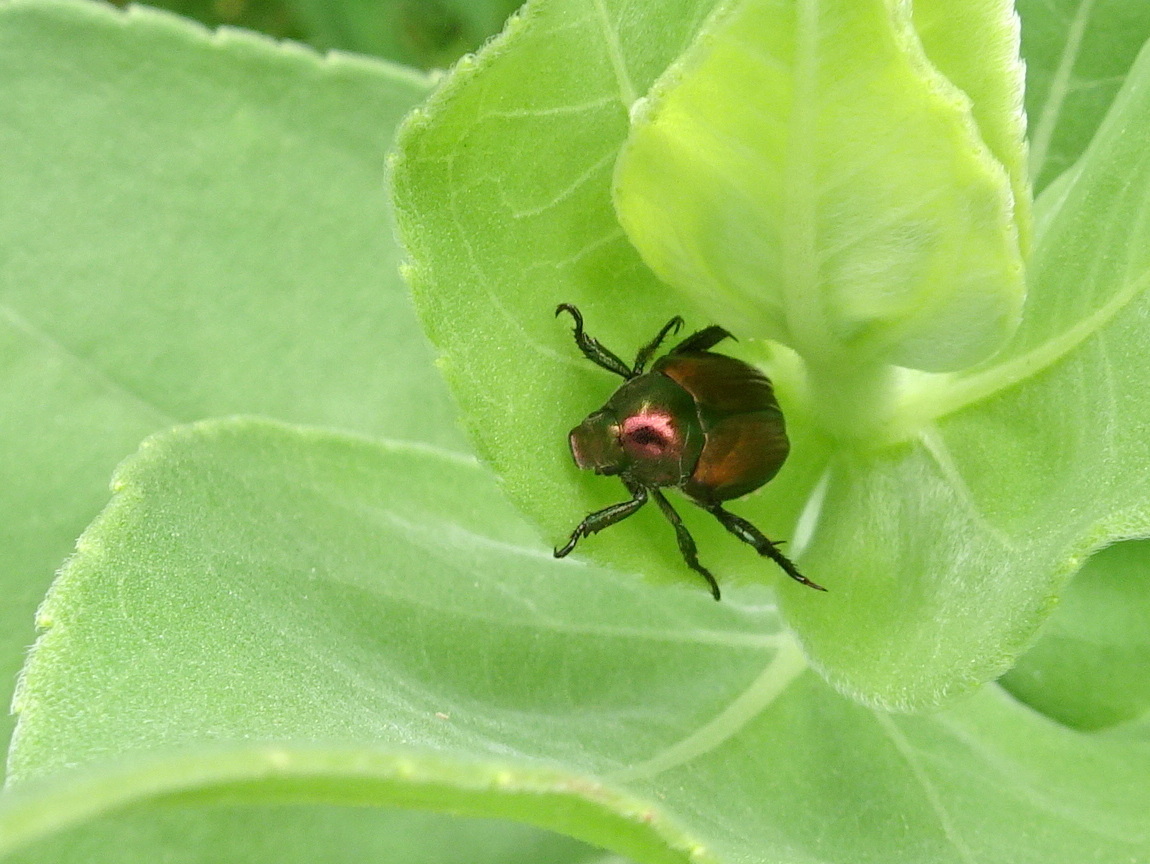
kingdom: Animalia
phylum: Arthropoda
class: Insecta
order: Coleoptera
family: Scarabaeidae
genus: Popillia
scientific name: Popillia japonica
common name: Japanese beetle
